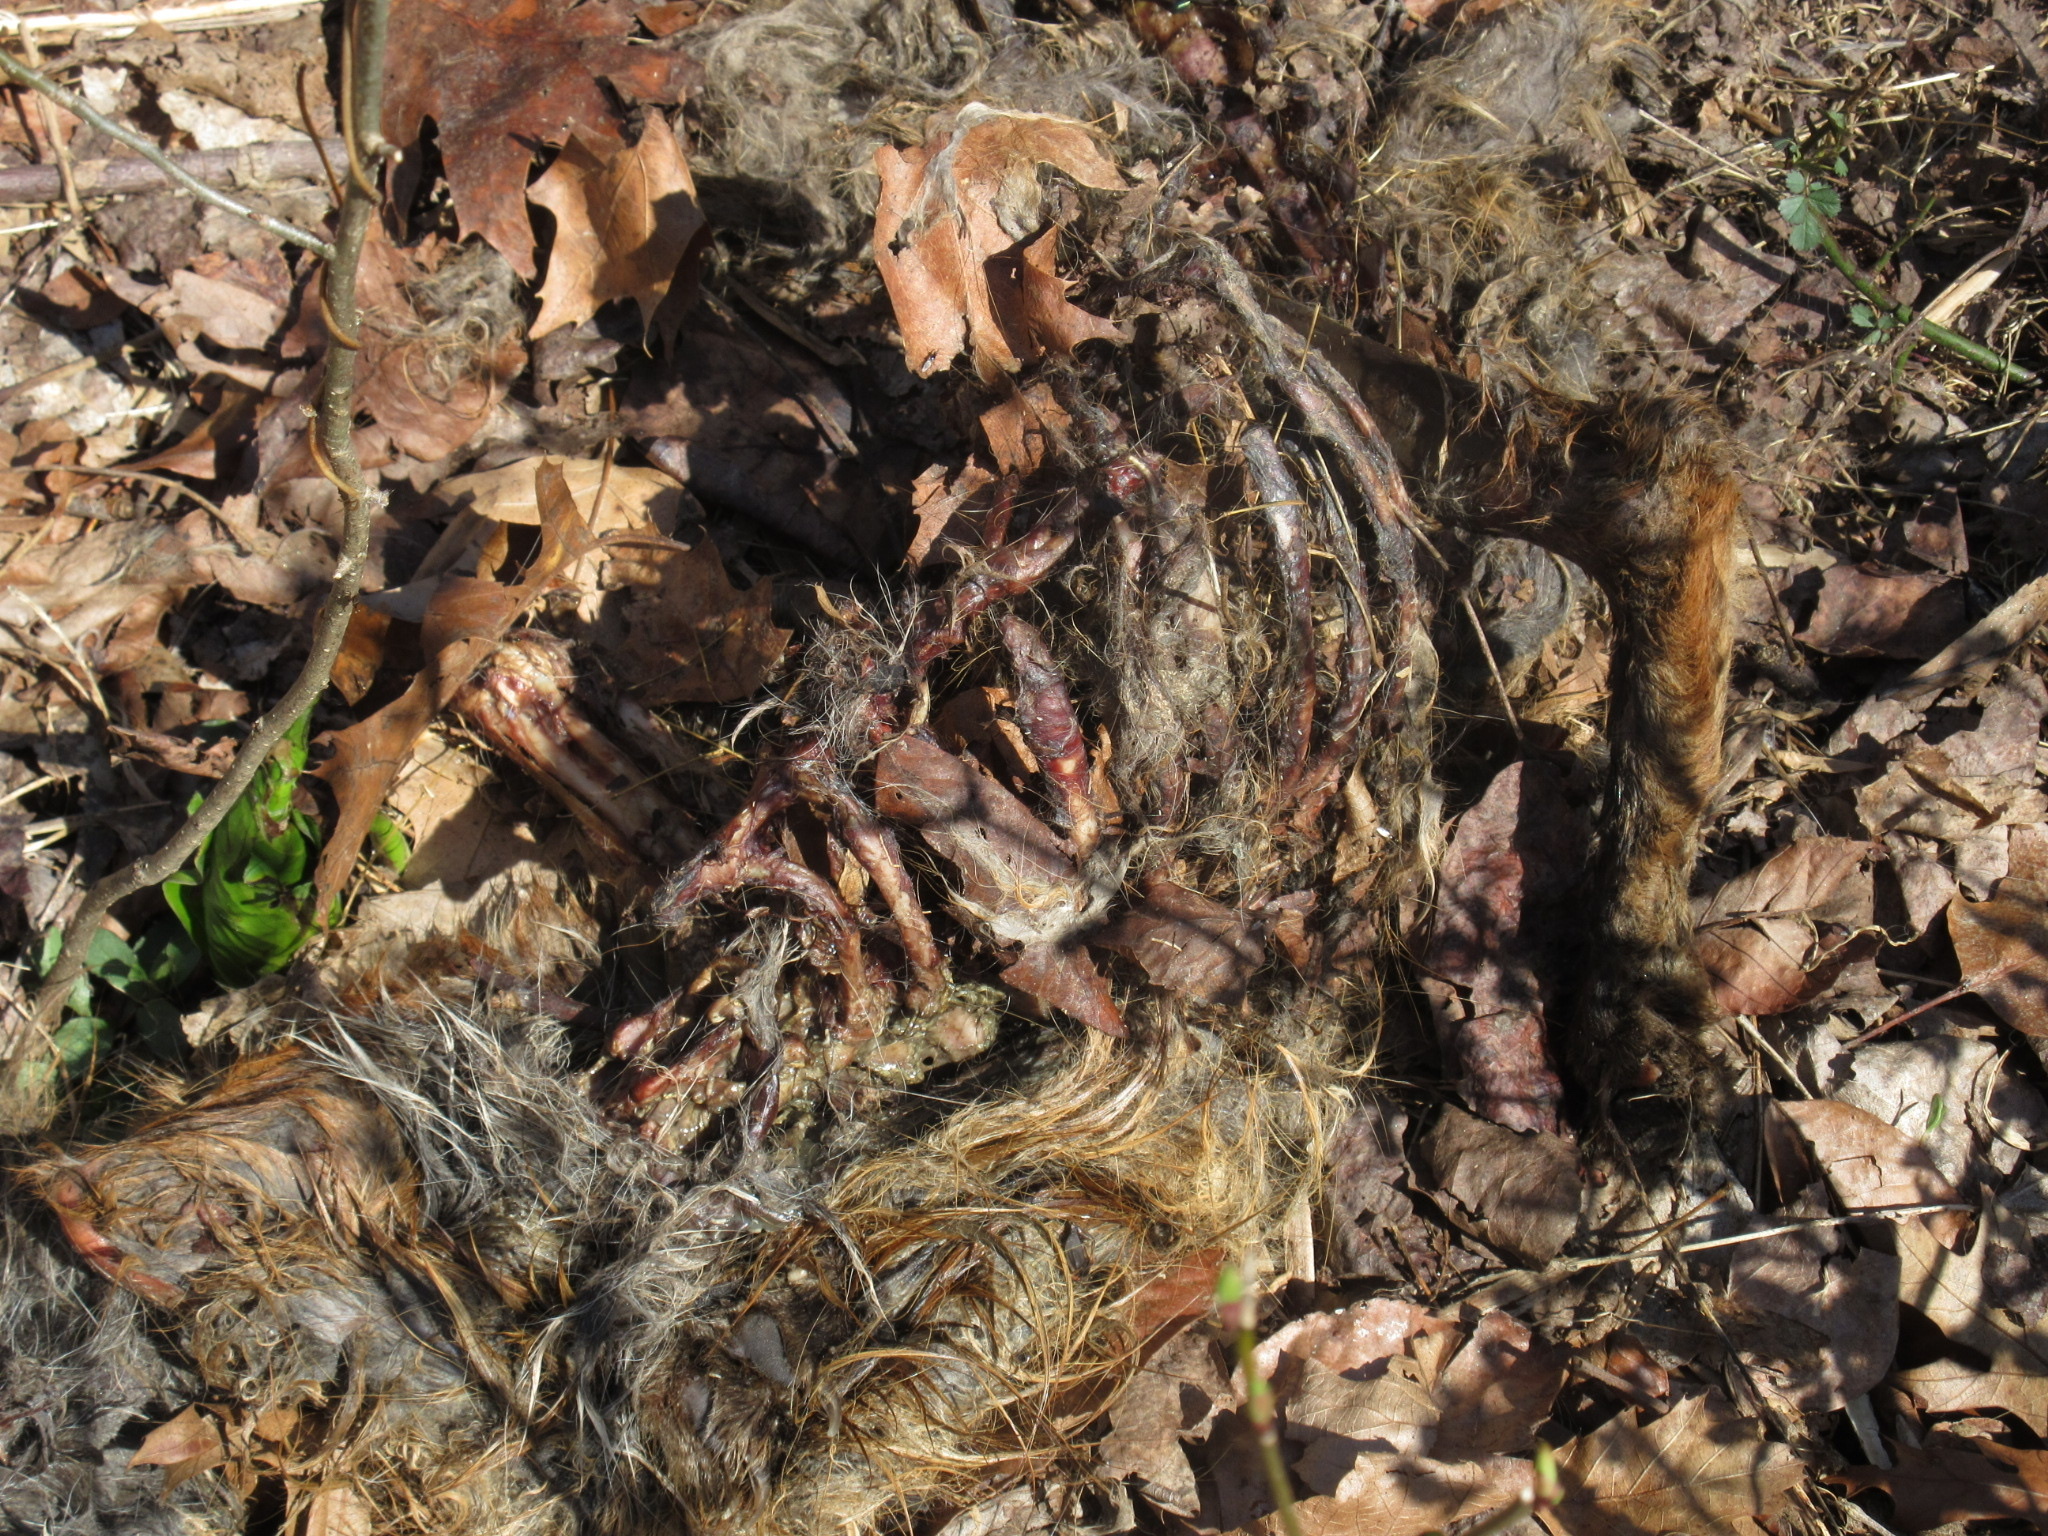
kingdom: Animalia
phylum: Chordata
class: Mammalia
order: Carnivora
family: Canidae
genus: Vulpes
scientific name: Vulpes vulpes
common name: Red fox
